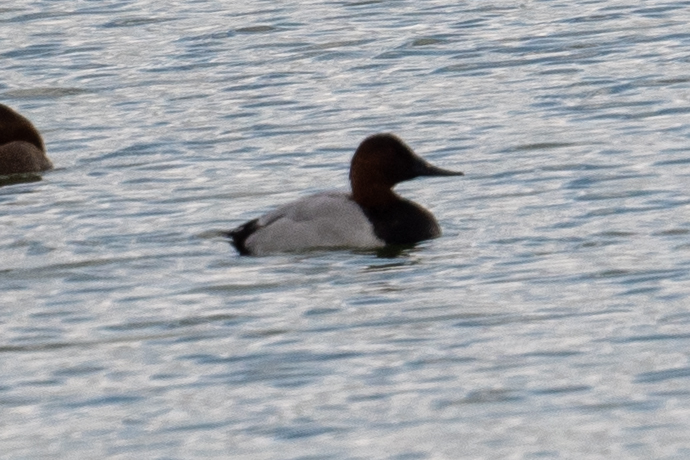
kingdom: Animalia
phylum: Chordata
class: Aves
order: Anseriformes
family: Anatidae
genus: Aythya
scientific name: Aythya valisineria
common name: Canvasback
